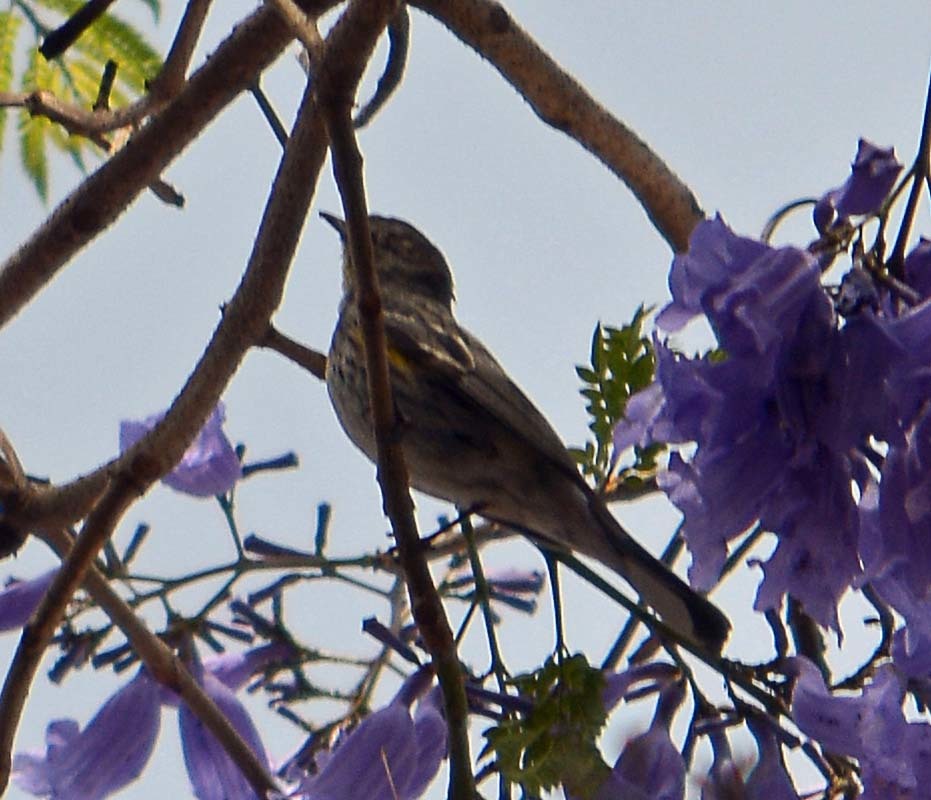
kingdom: Animalia
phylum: Chordata
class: Aves
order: Passeriformes
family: Parulidae
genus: Setophaga
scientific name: Setophaga coronata
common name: Myrtle warbler
